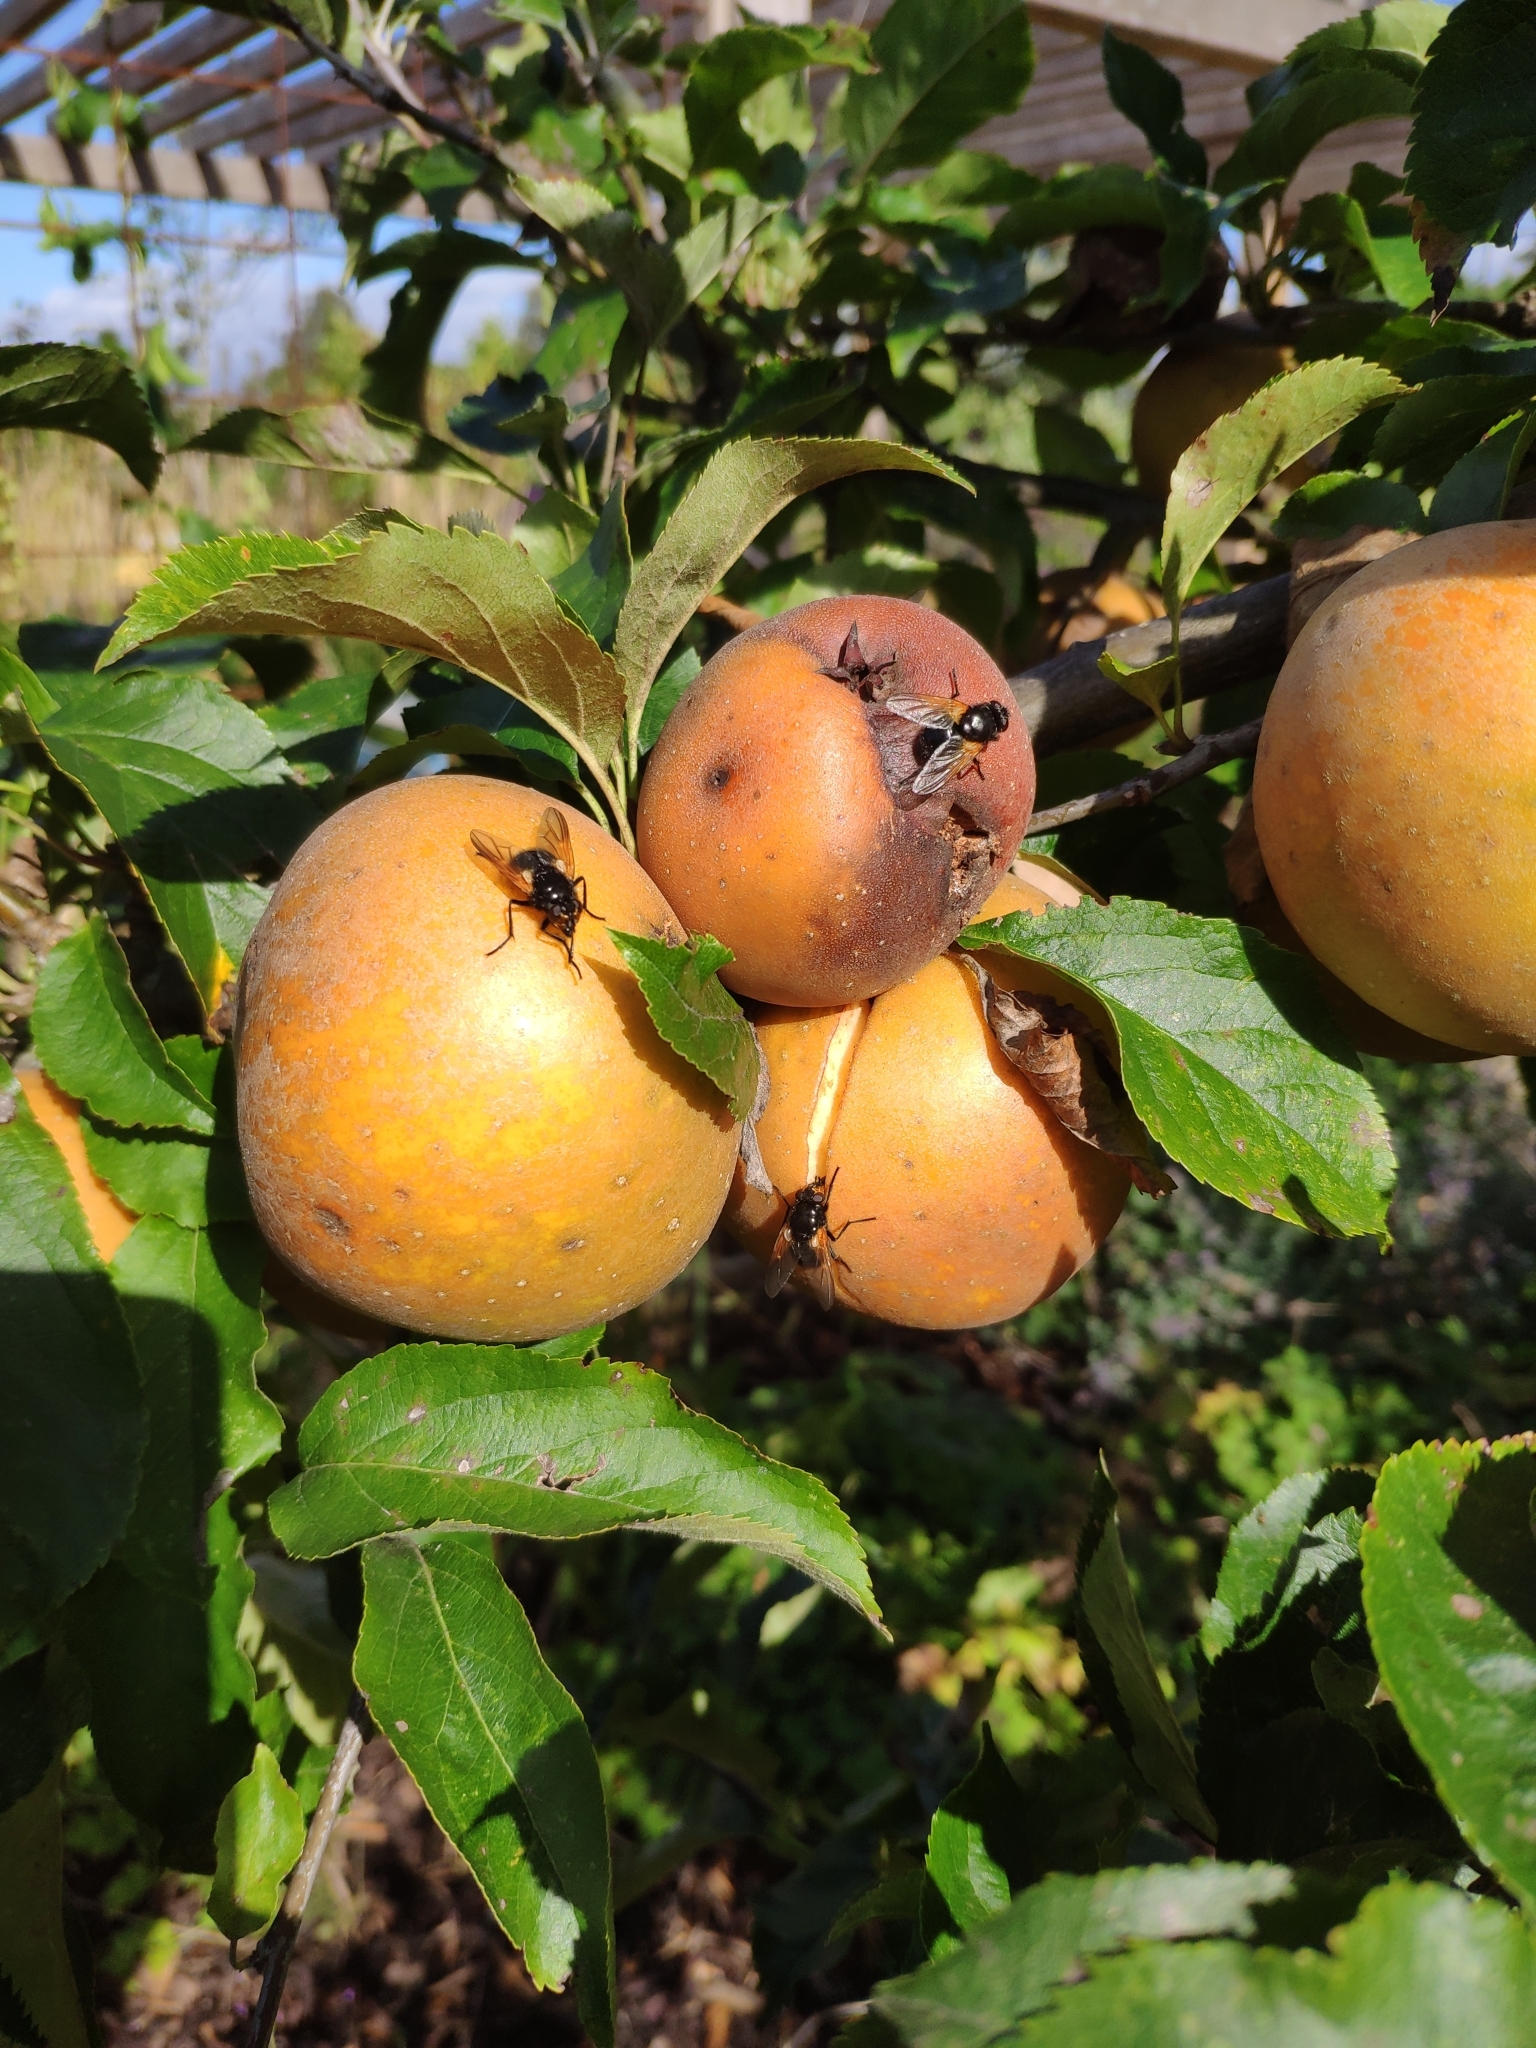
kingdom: Animalia
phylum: Arthropoda
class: Insecta
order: Diptera
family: Muscidae
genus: Mesembrina
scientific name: Mesembrina meridiana
